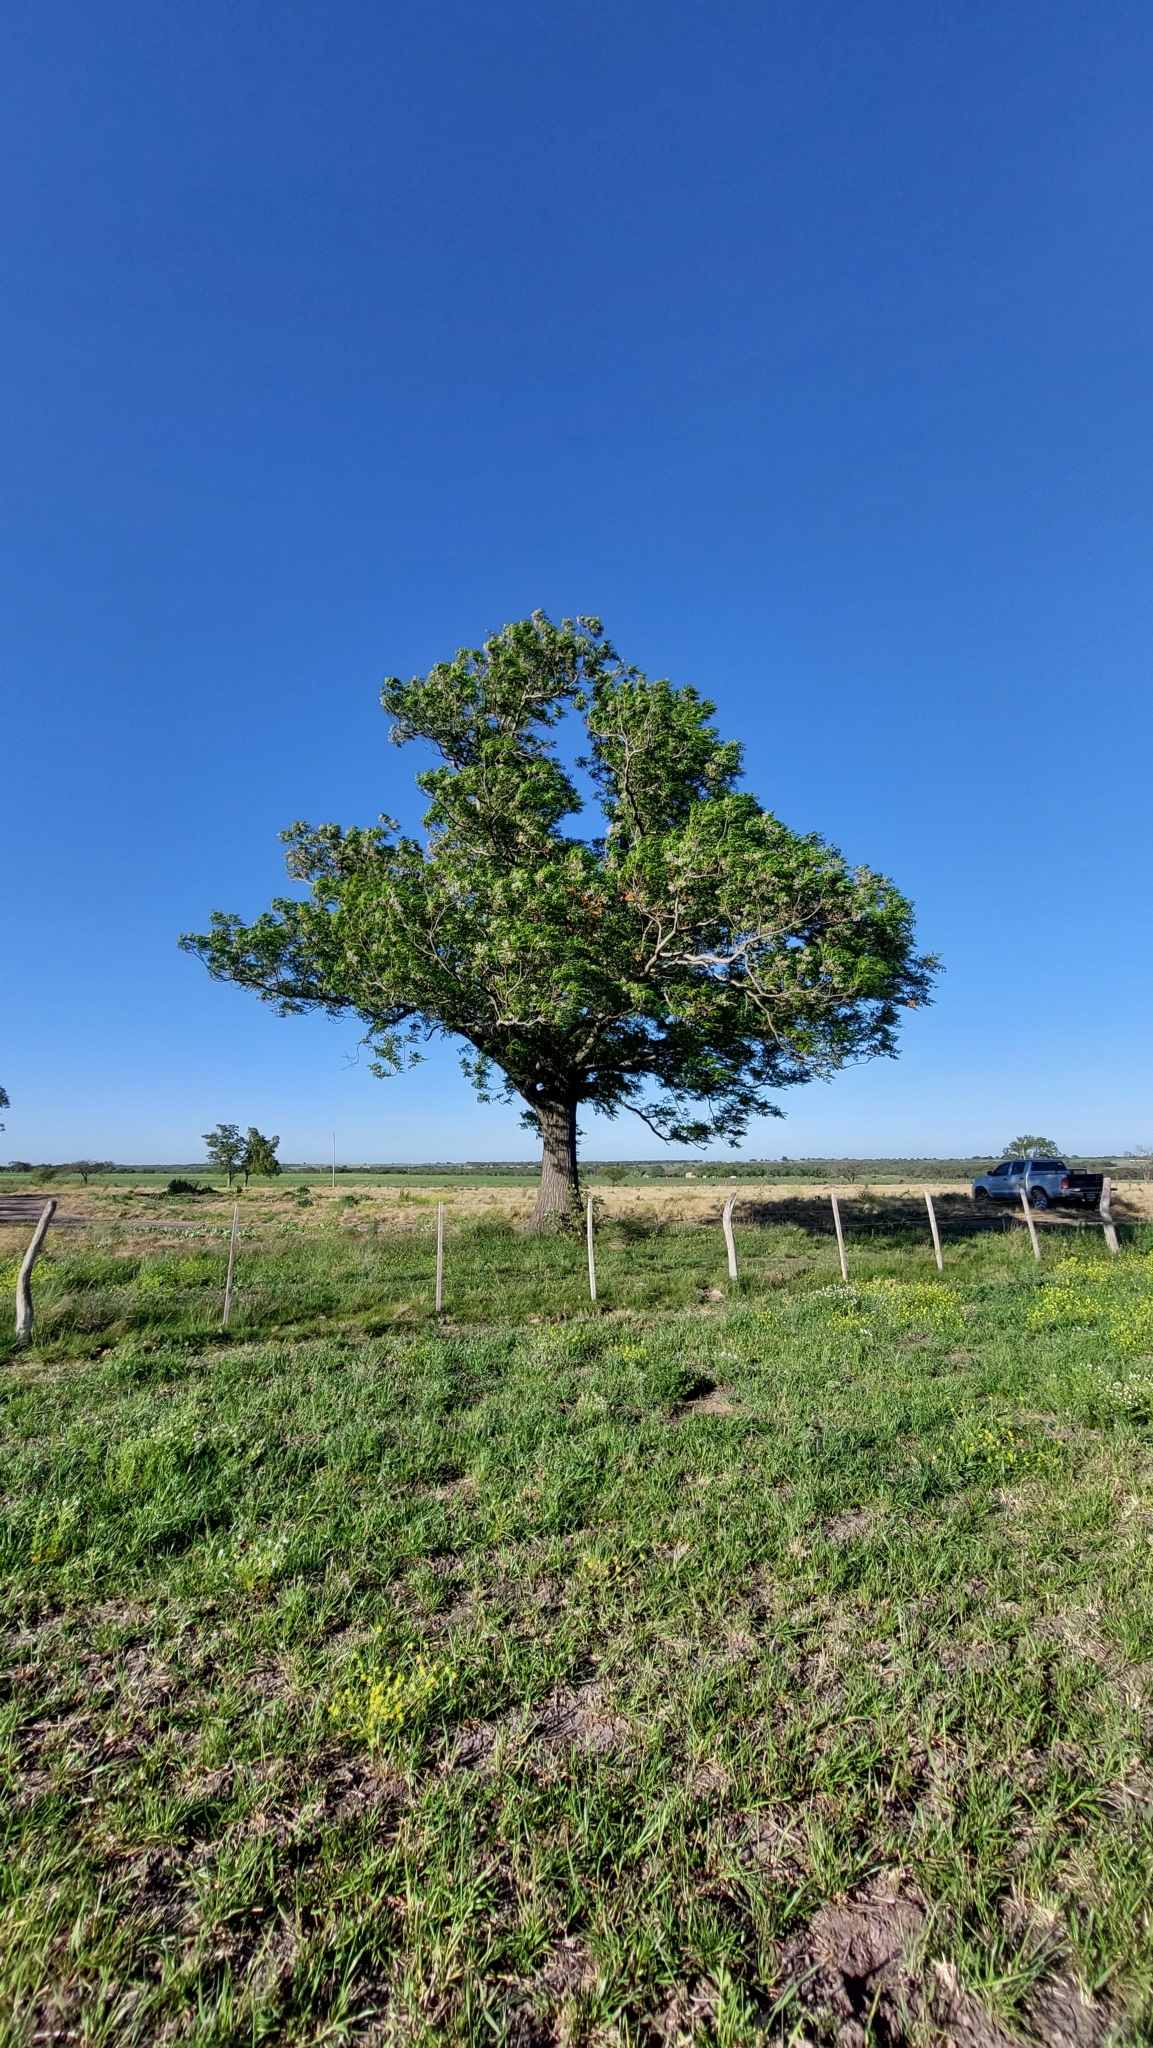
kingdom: Plantae
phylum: Tracheophyta
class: Magnoliopsida
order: Sapindales
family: Meliaceae
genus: Melia
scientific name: Melia azedarach
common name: Chinaberrytree
